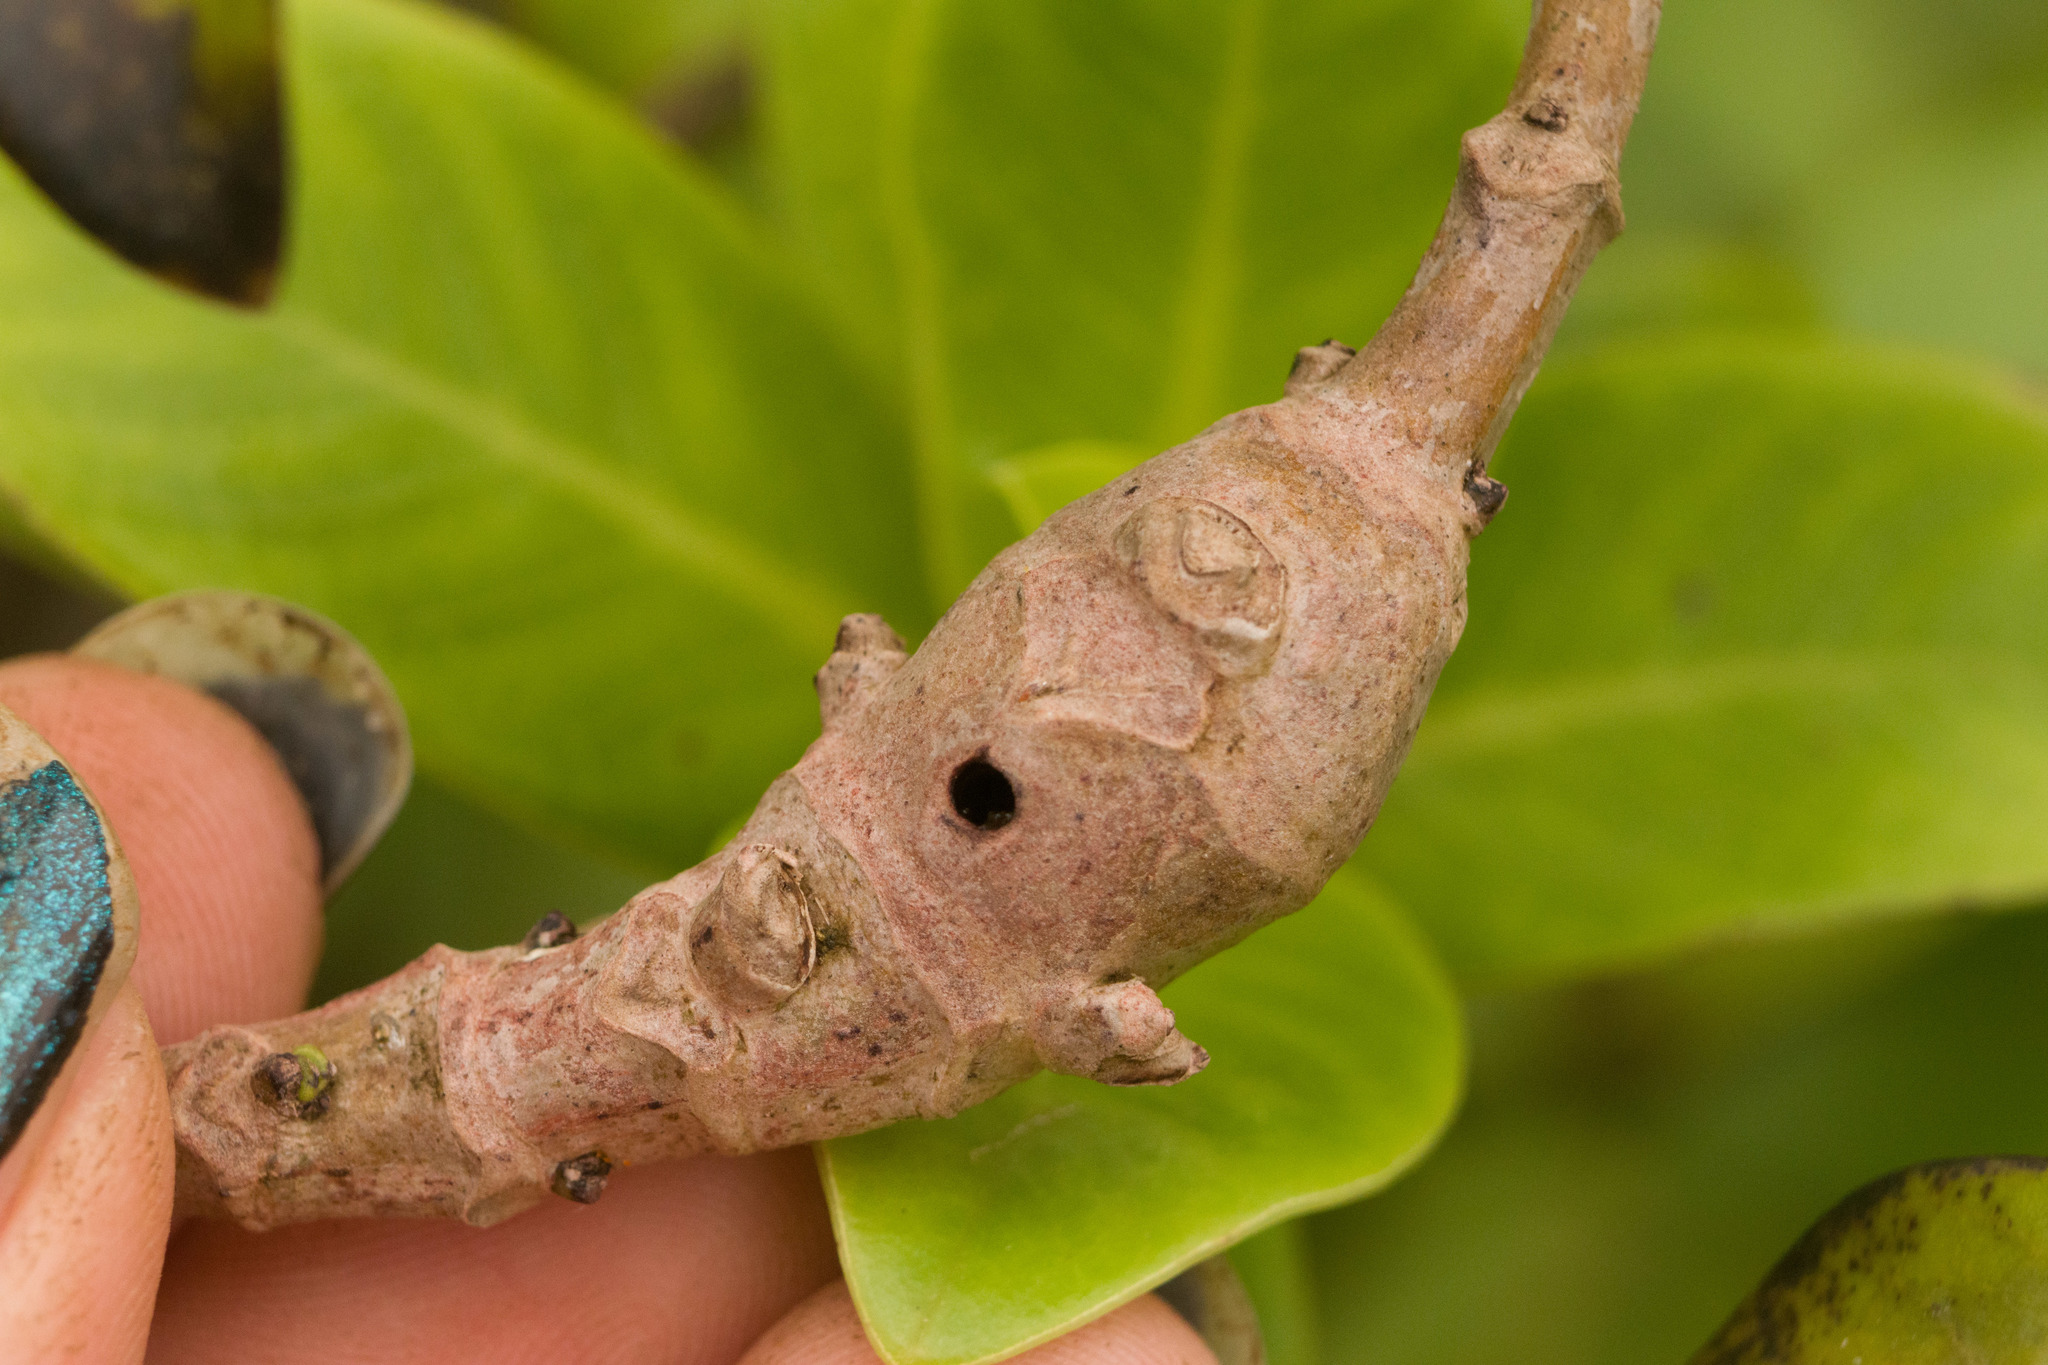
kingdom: Animalia
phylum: Arthropoda
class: Insecta
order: Lepidoptera
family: Gelechiidae
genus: Merimnetria
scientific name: Merimnetria homoxyla
